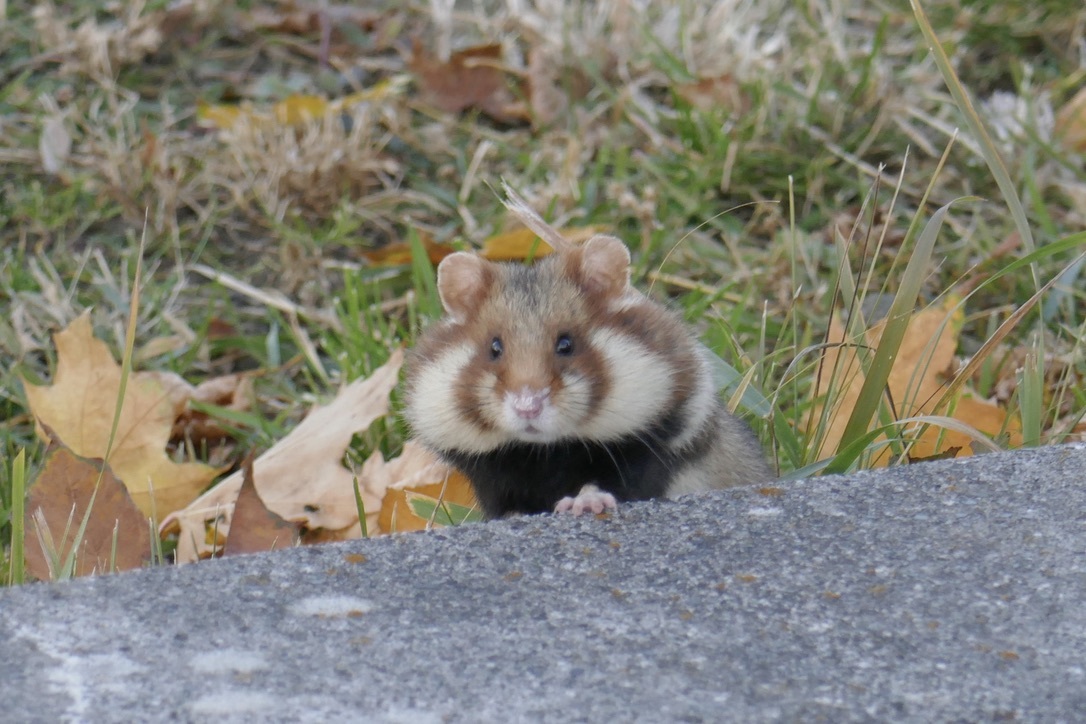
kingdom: Animalia
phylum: Chordata
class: Mammalia
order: Rodentia
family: Cricetidae
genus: Cricetus
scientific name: Cricetus cricetus
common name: Common hamster
